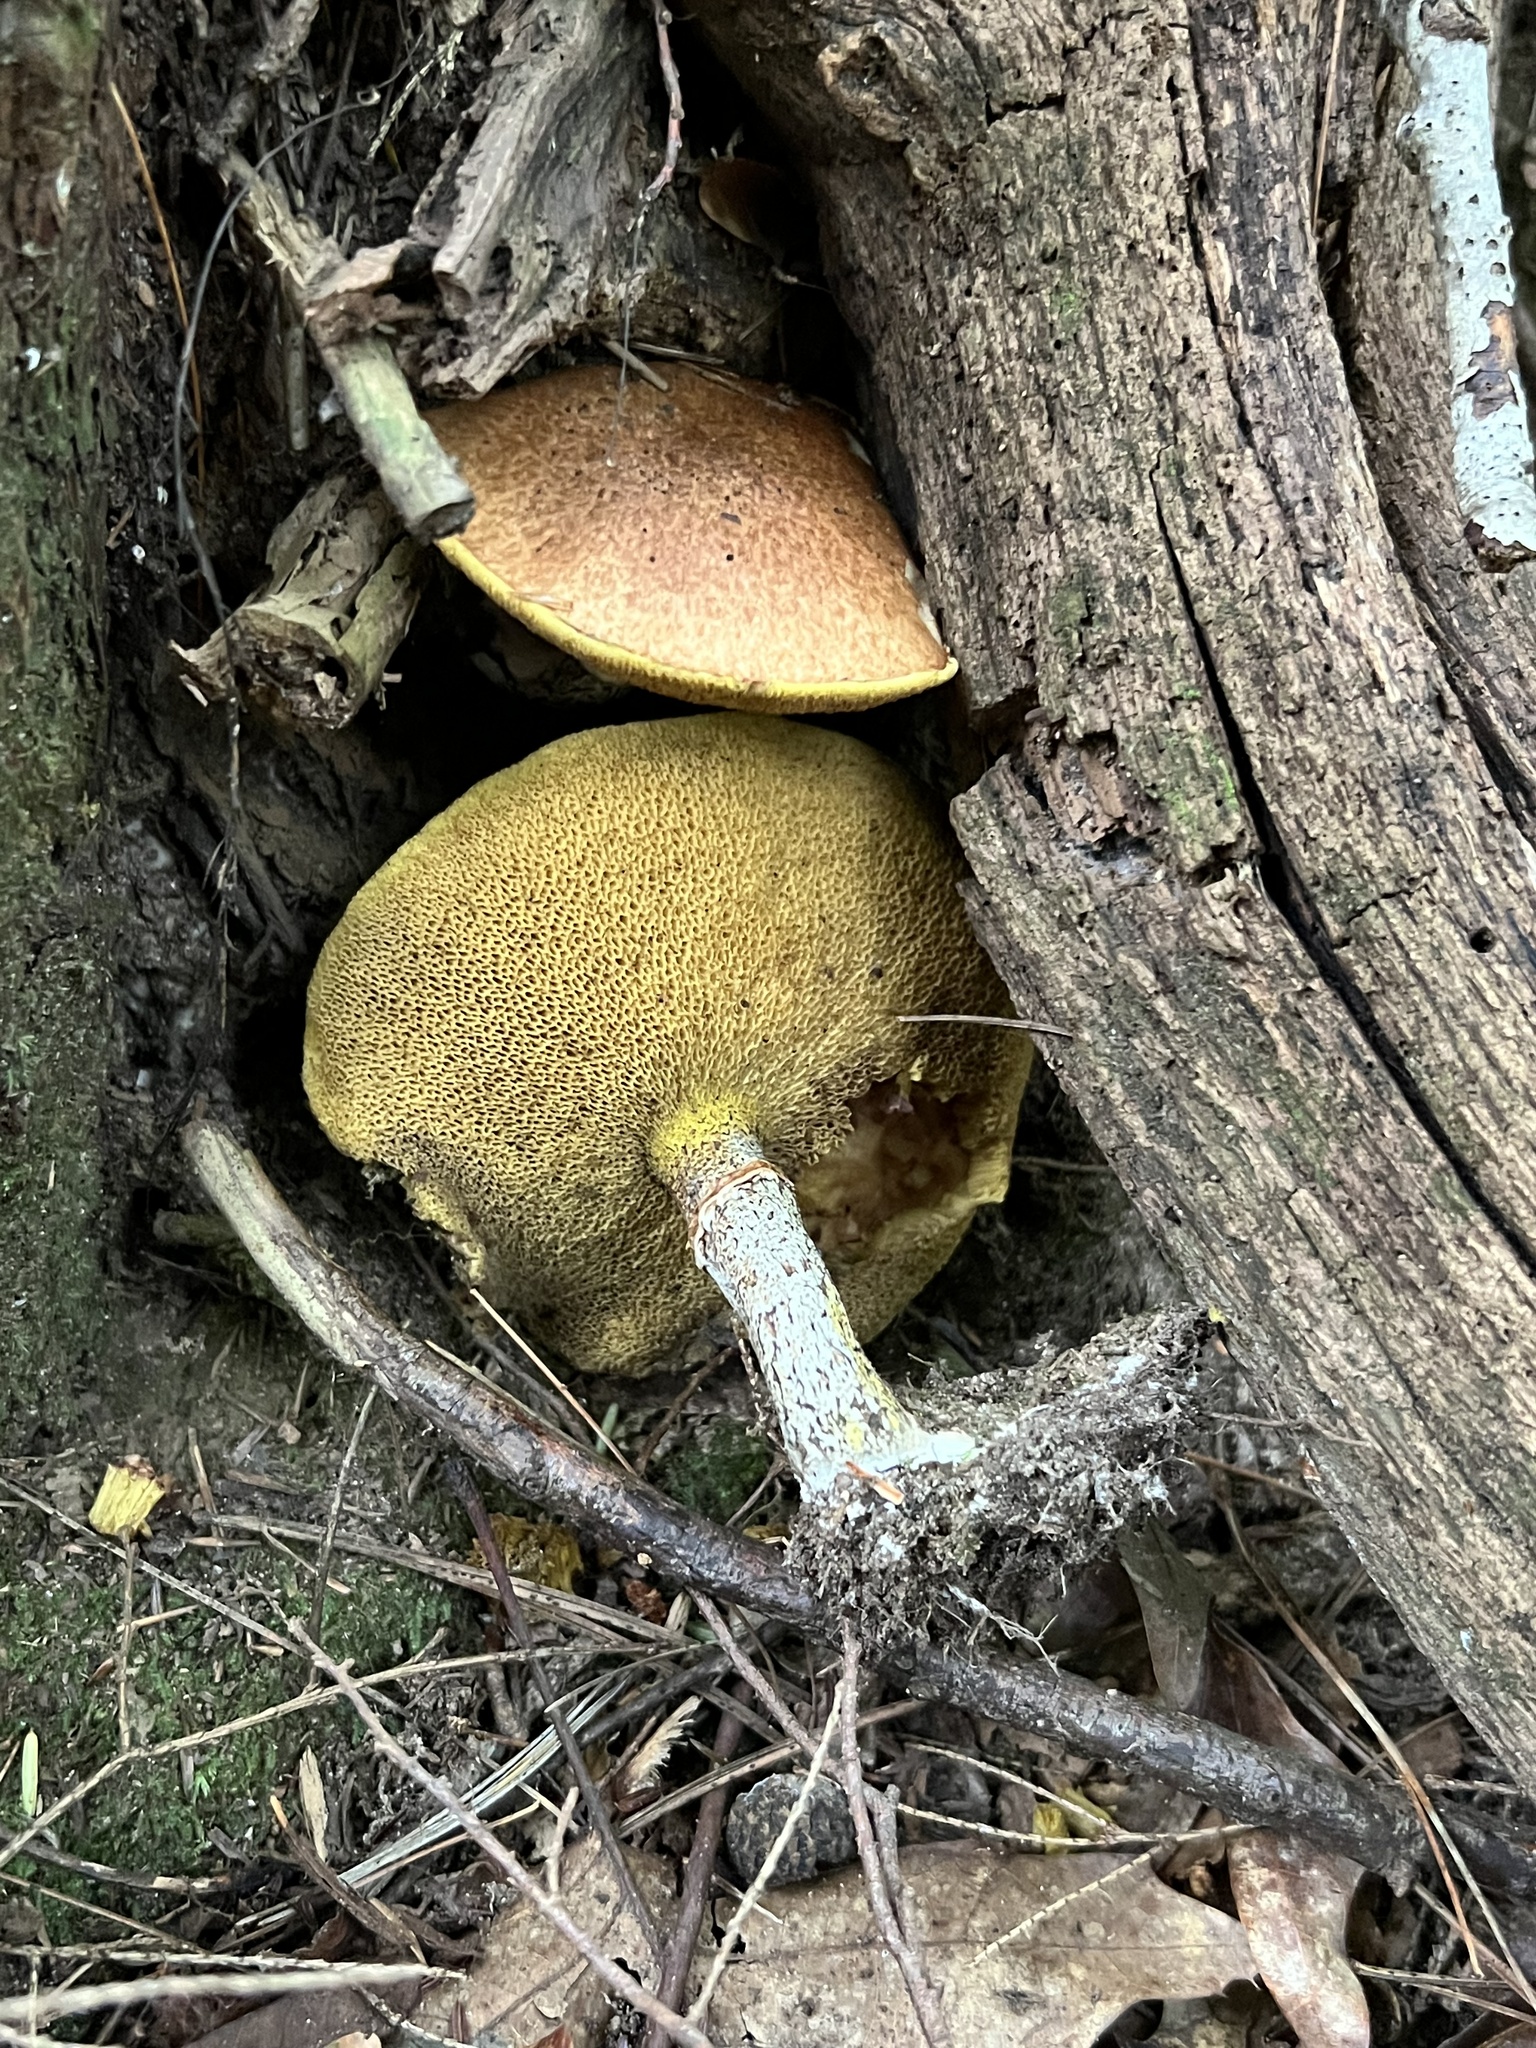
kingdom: Fungi
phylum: Basidiomycota
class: Agaricomycetes
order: Boletales
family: Suillaceae
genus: Suillus
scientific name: Suillus acidus
